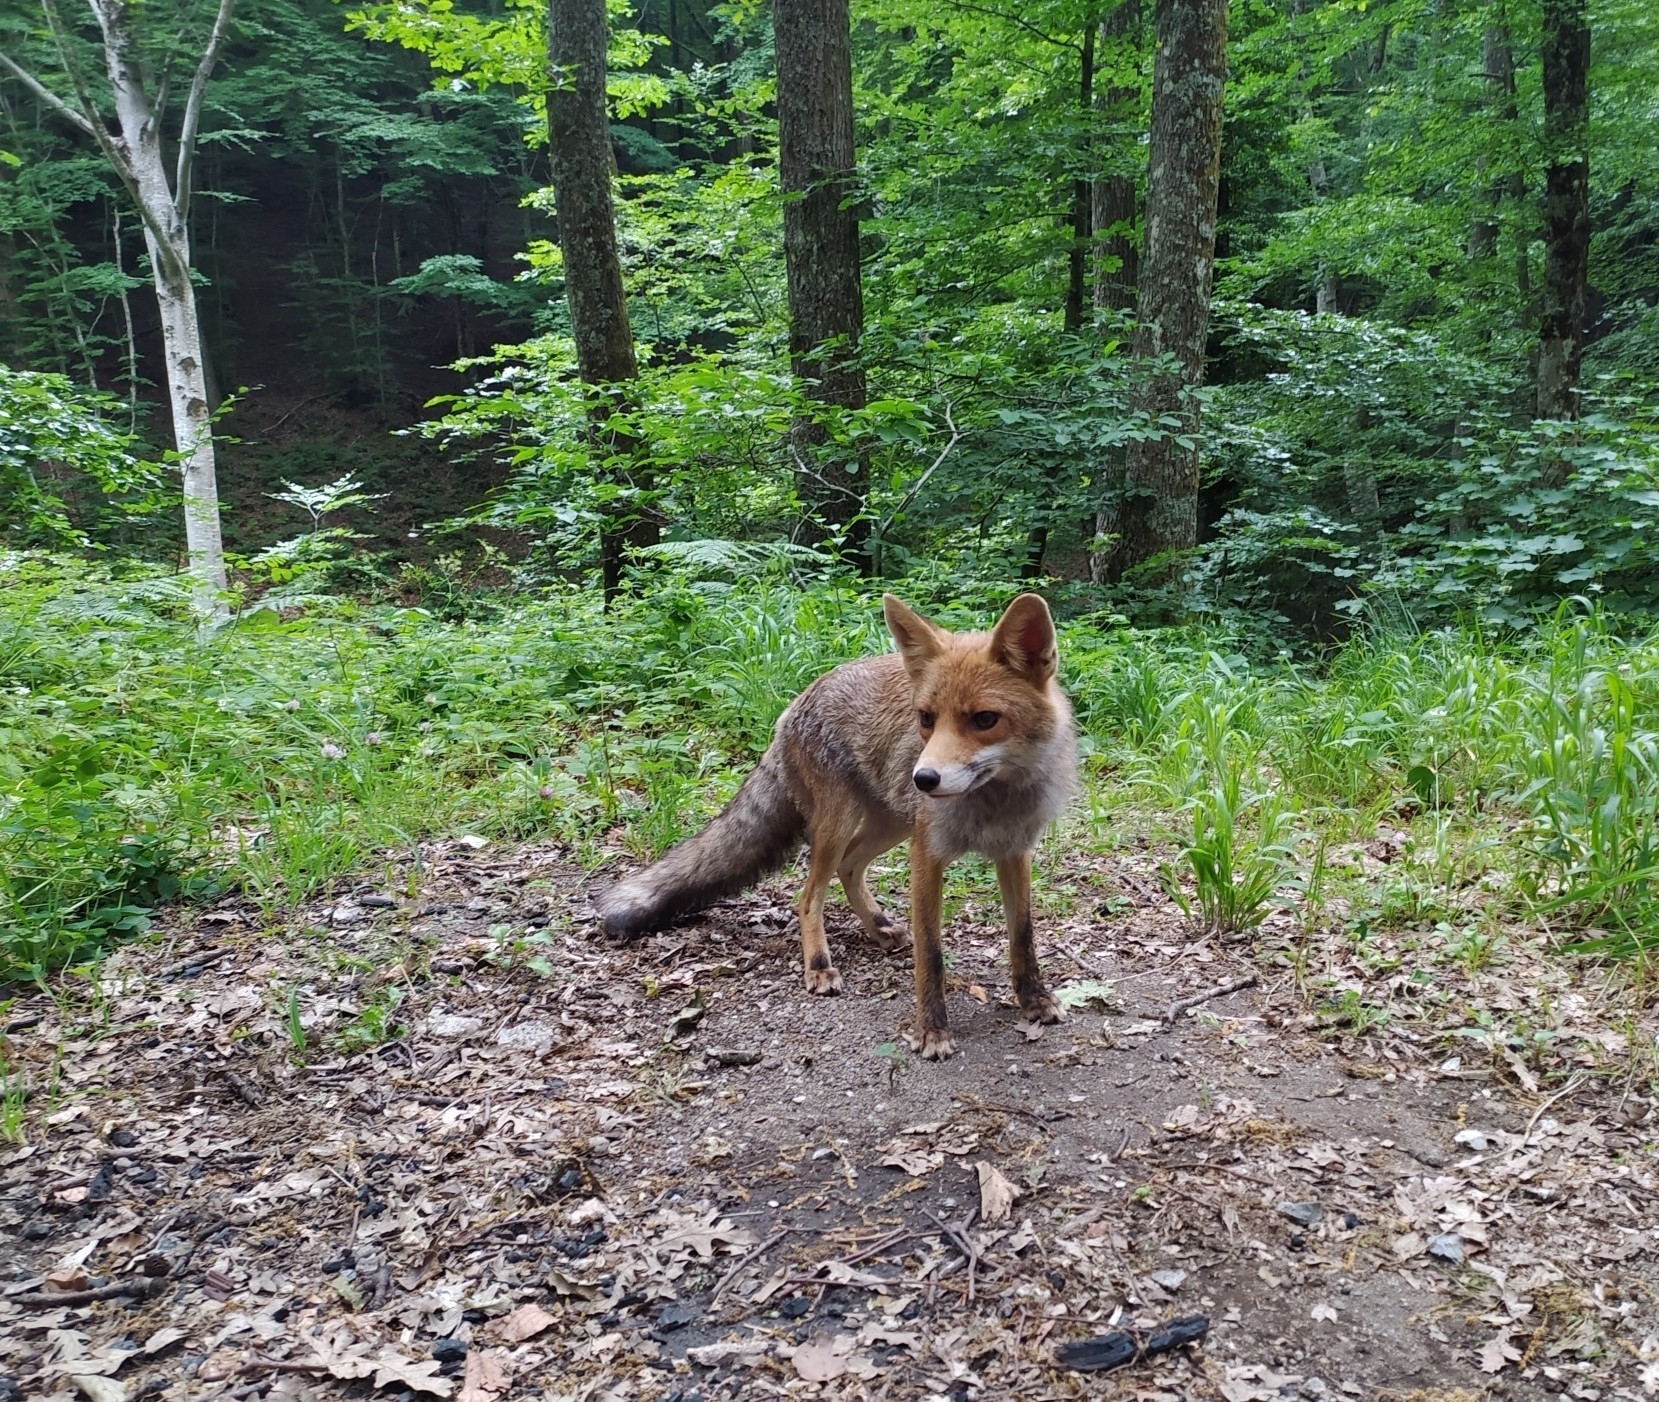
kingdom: Animalia
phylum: Chordata
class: Mammalia
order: Carnivora
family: Canidae
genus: Vulpes
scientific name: Vulpes vulpes
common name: Red fox
